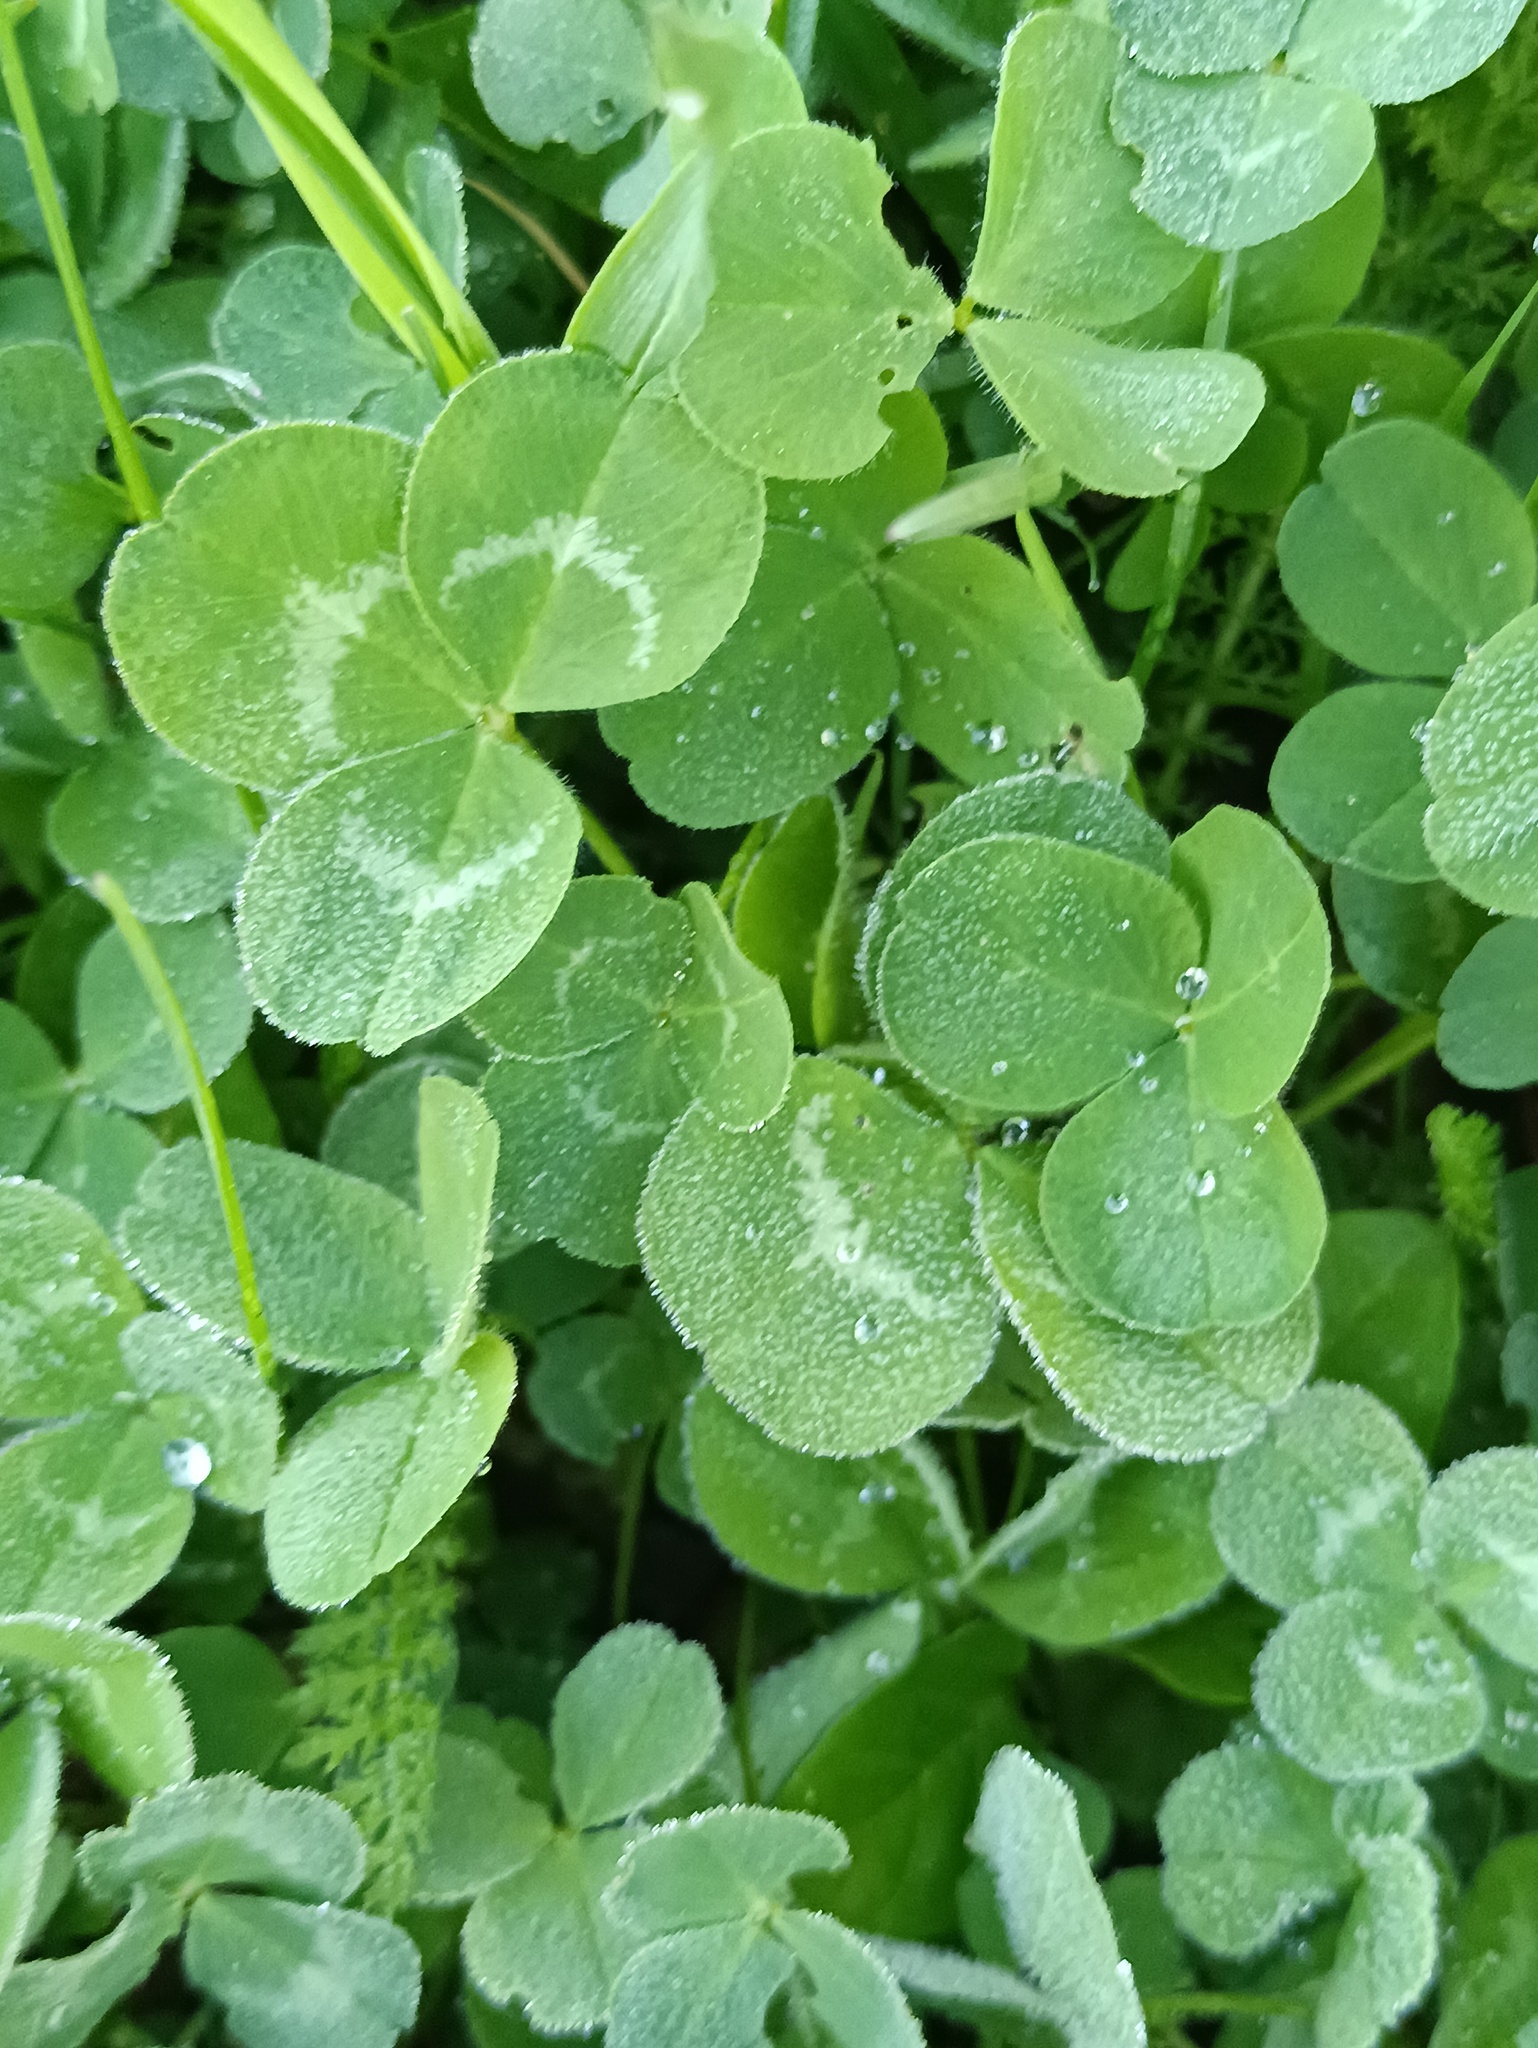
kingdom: Plantae
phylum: Tracheophyta
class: Magnoliopsida
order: Fabales
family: Fabaceae
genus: Trifolium
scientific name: Trifolium repens
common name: White clover
